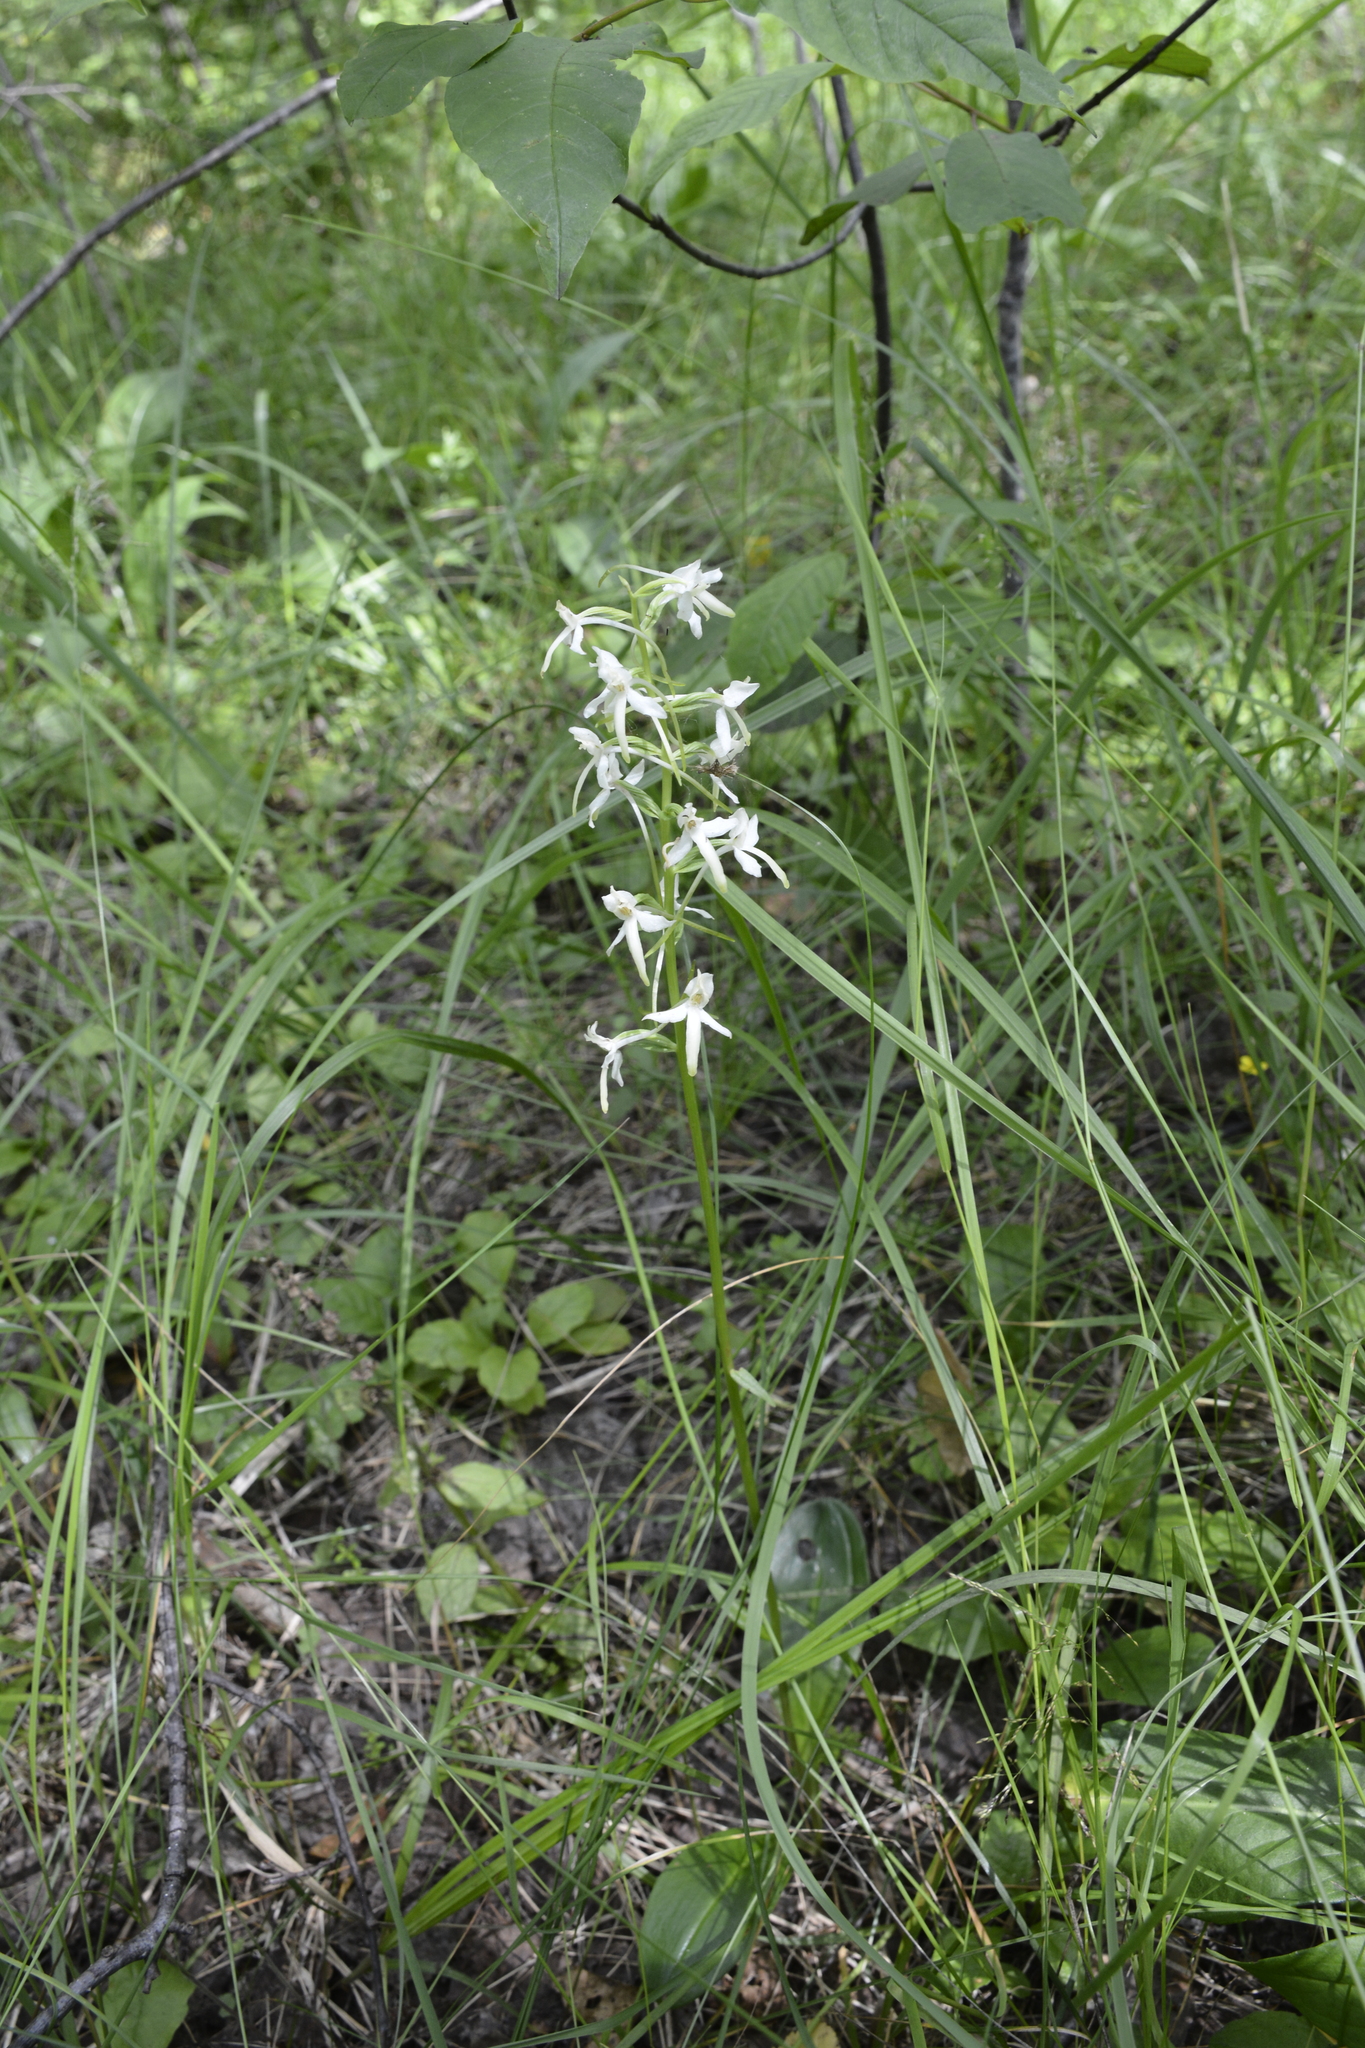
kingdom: Plantae
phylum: Tracheophyta
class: Liliopsida
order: Asparagales
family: Orchidaceae
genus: Platanthera
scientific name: Platanthera bifolia
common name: Lesser butterfly-orchid
